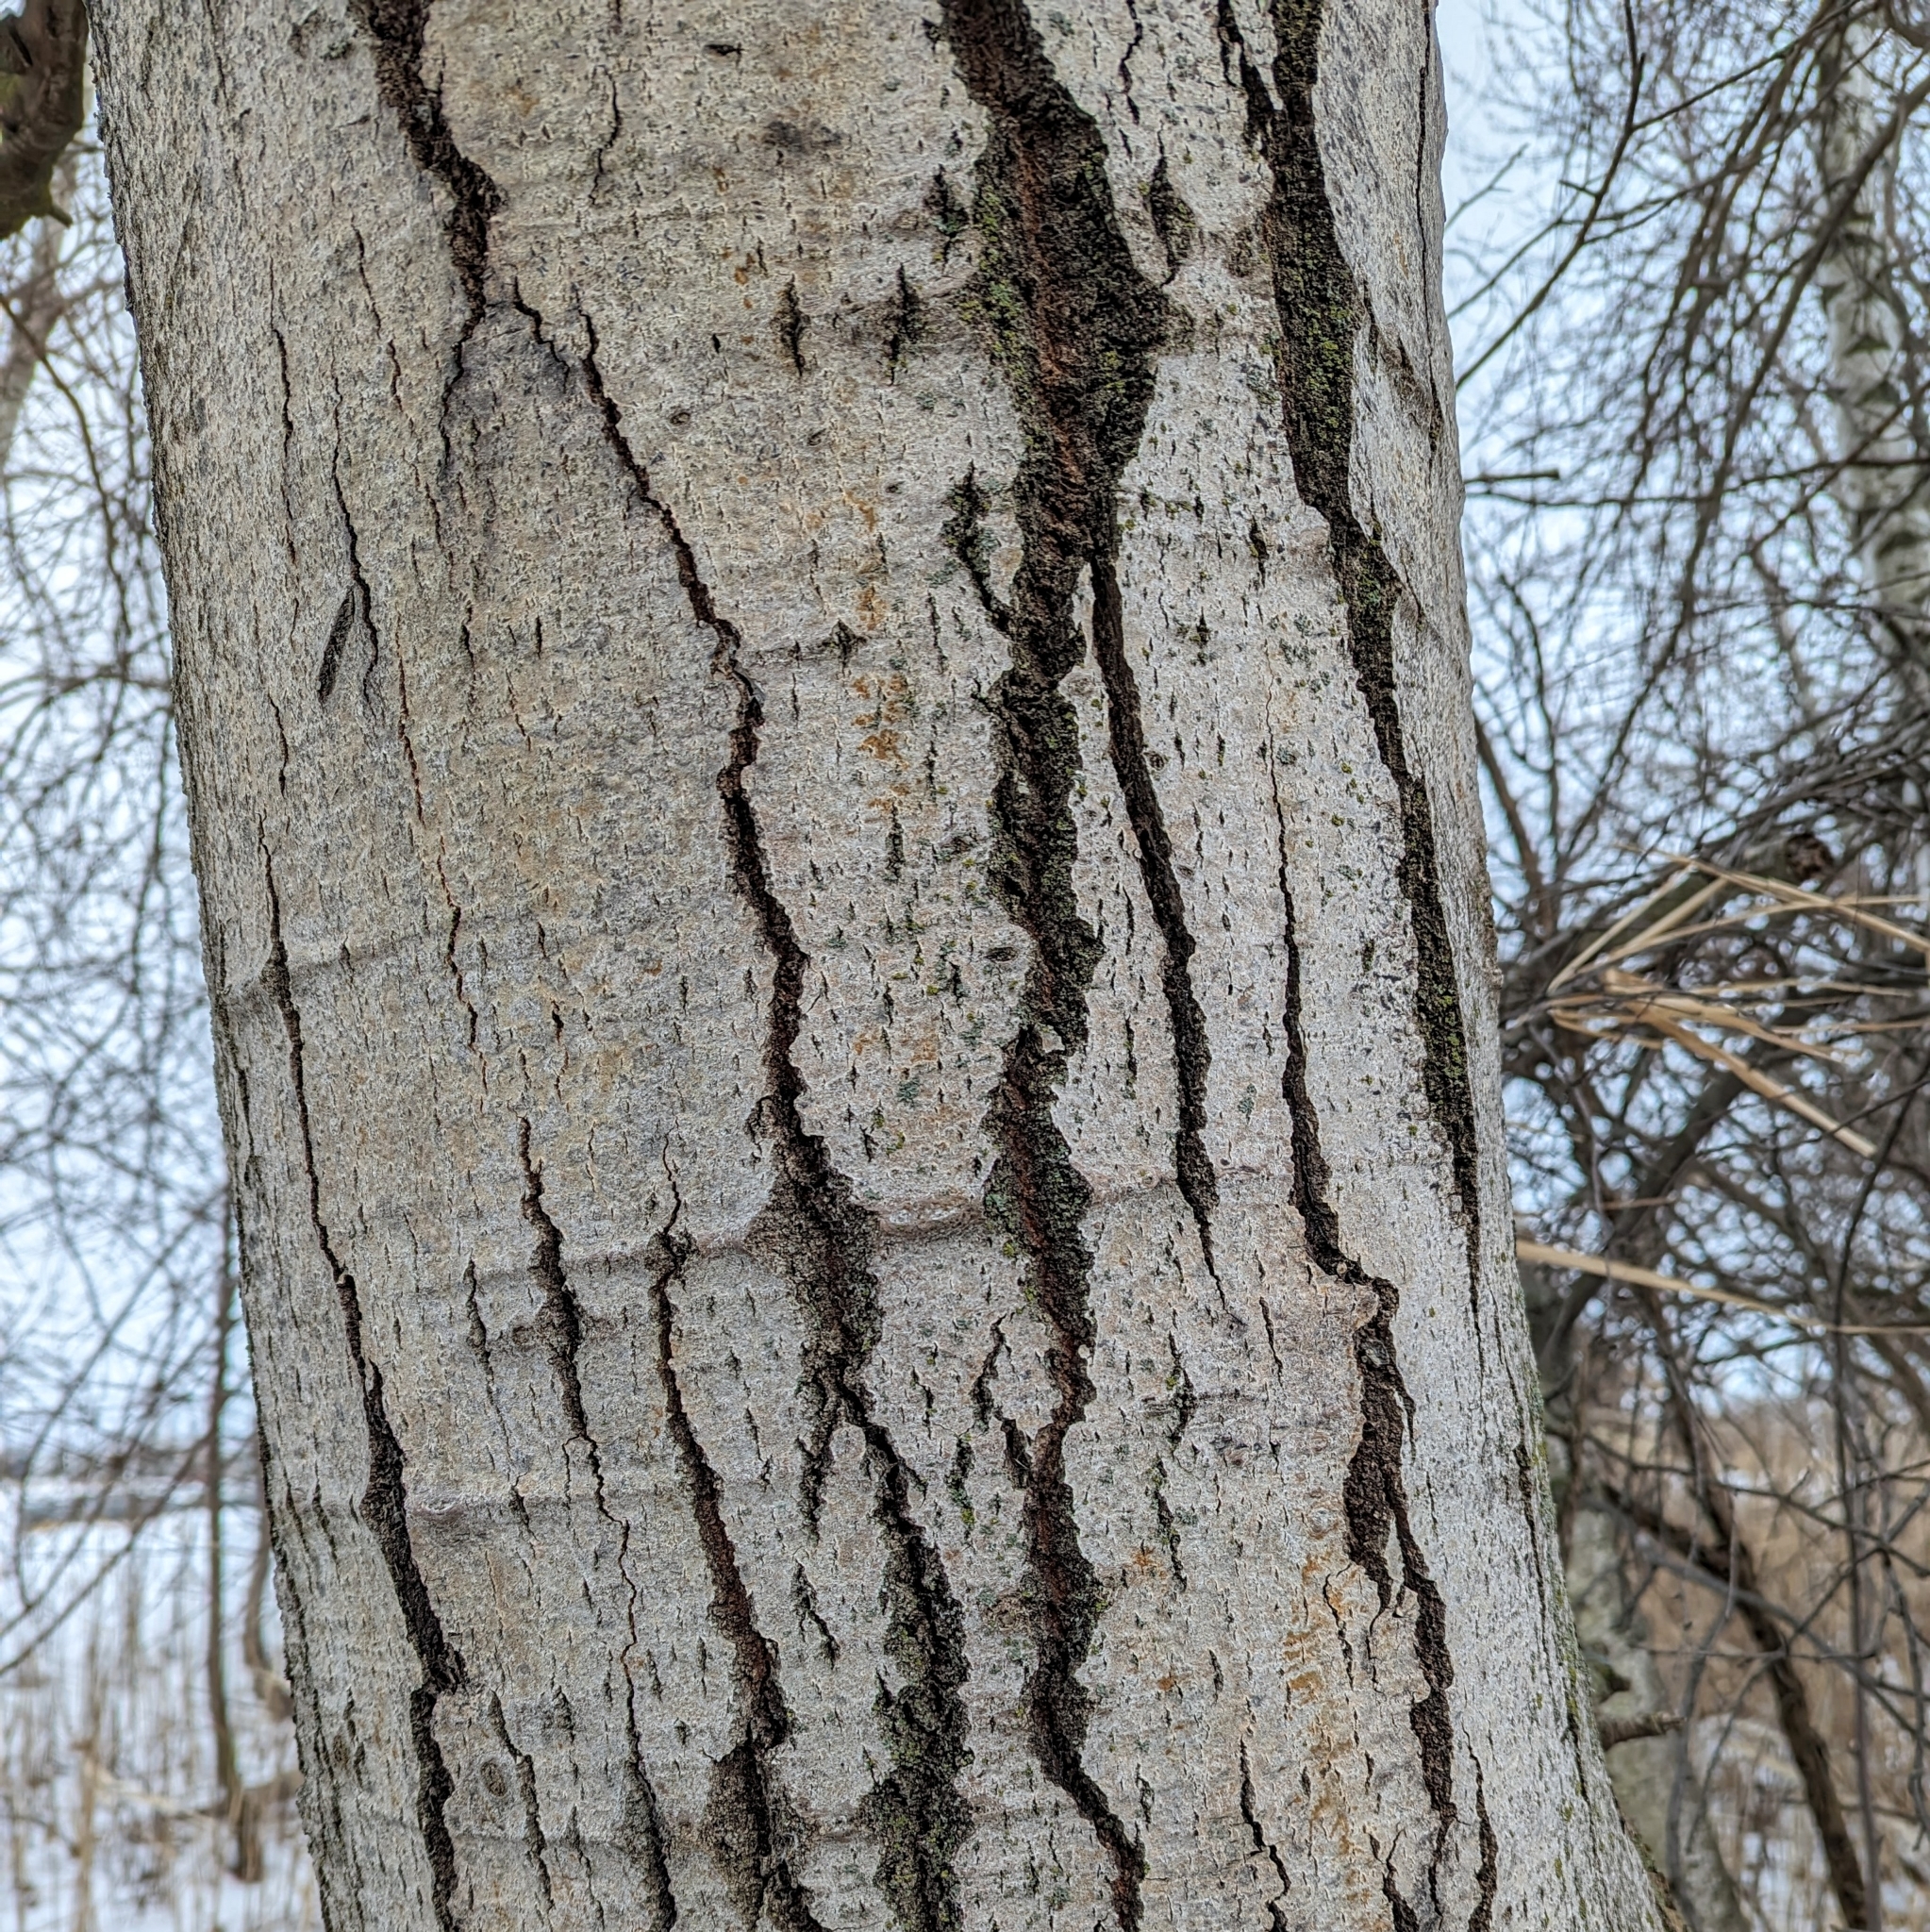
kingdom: Plantae
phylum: Tracheophyta
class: Magnoliopsida
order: Malpighiales
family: Salicaceae
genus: Populus
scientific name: Populus tremuloides
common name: Quaking aspen
